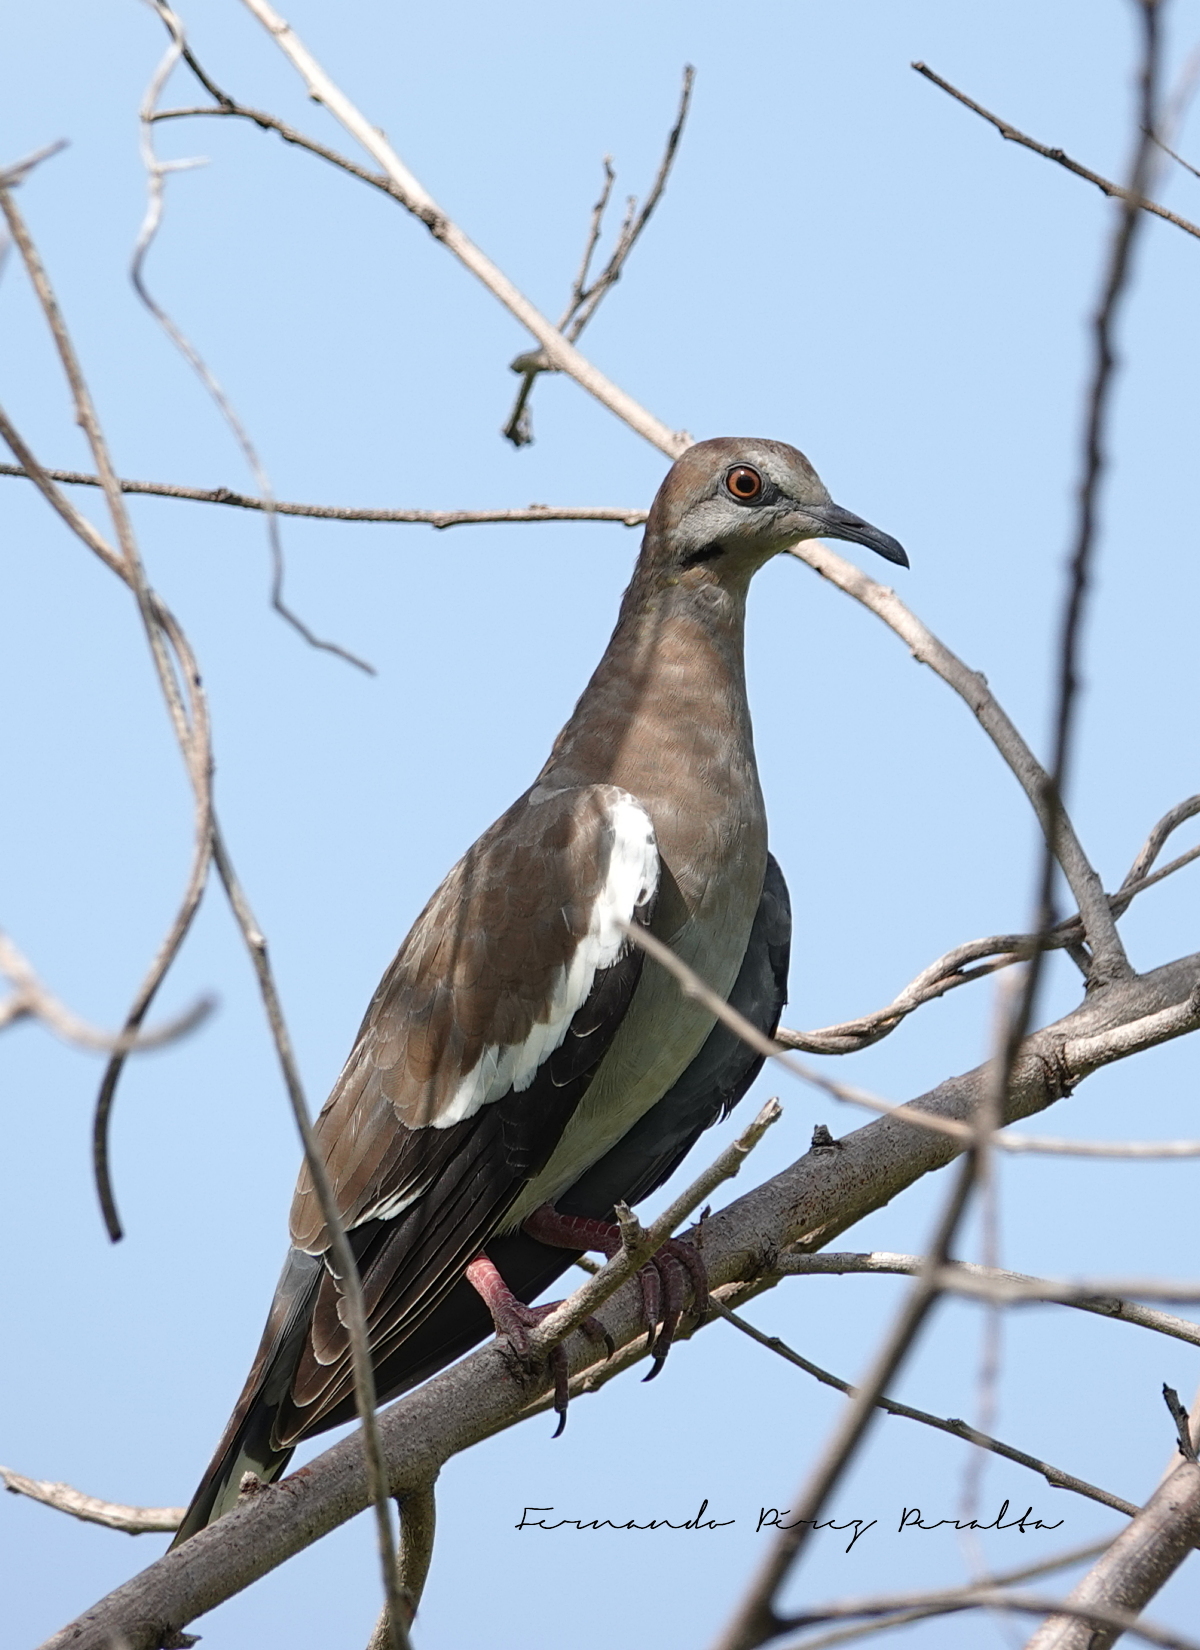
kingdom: Animalia
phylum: Chordata
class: Aves
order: Columbiformes
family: Columbidae
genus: Zenaida
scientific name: Zenaida asiatica
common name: White-winged dove
